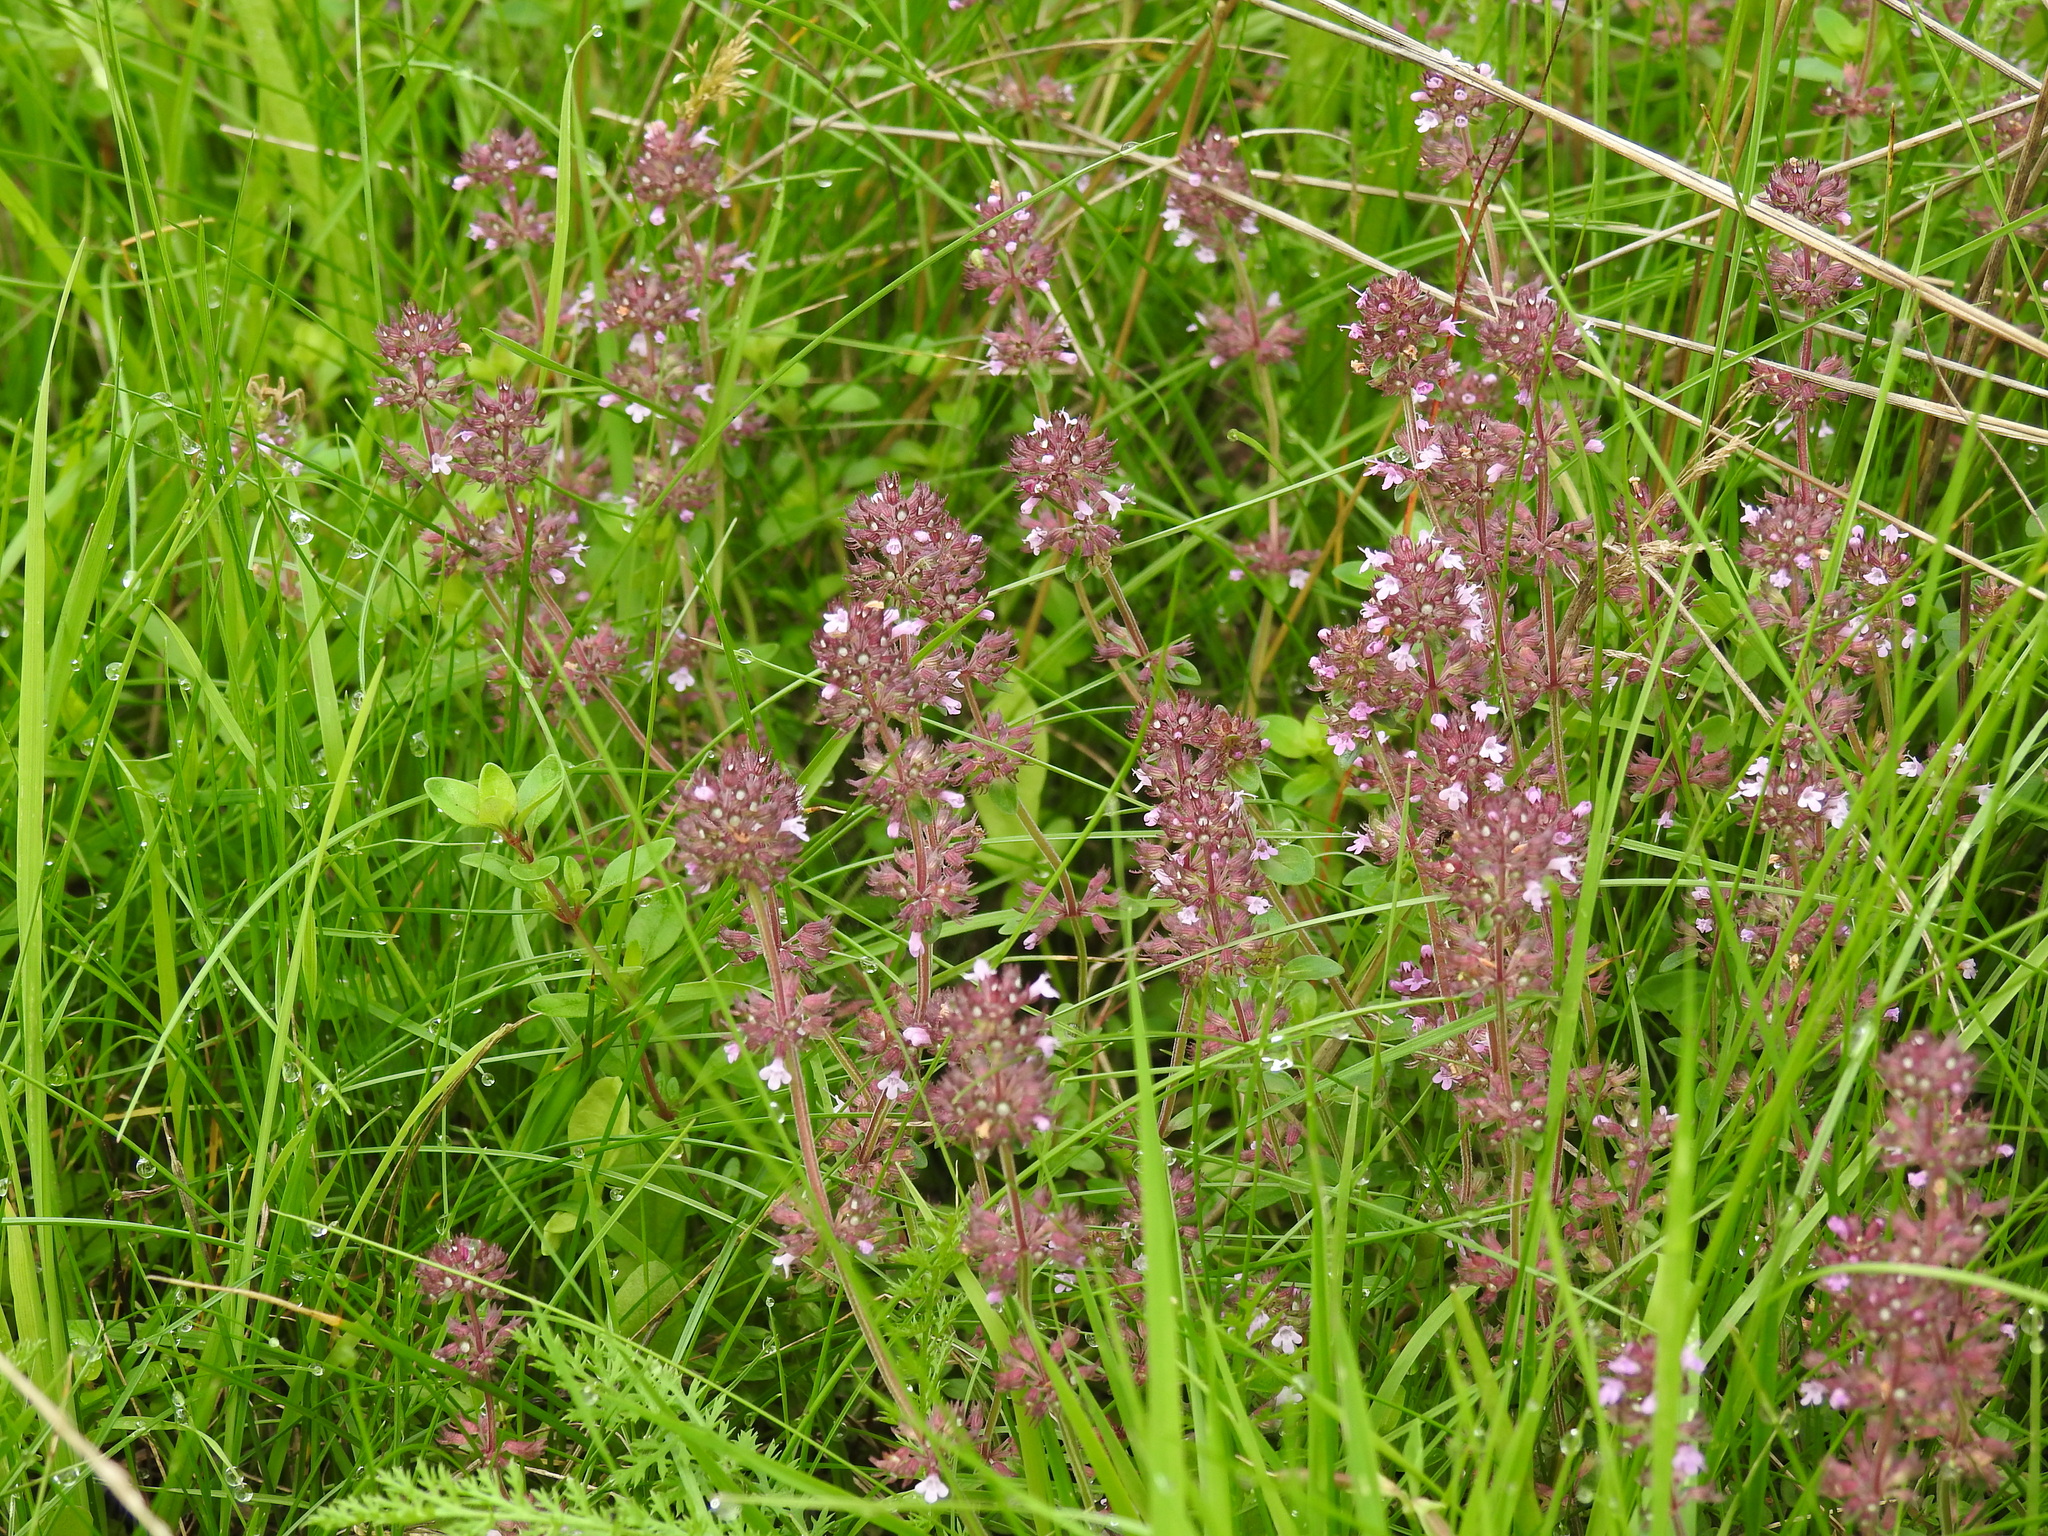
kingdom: Plantae
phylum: Tracheophyta
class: Magnoliopsida
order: Lamiales
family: Lamiaceae
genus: Thymus
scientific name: Thymus pulegioides
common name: Large thyme
